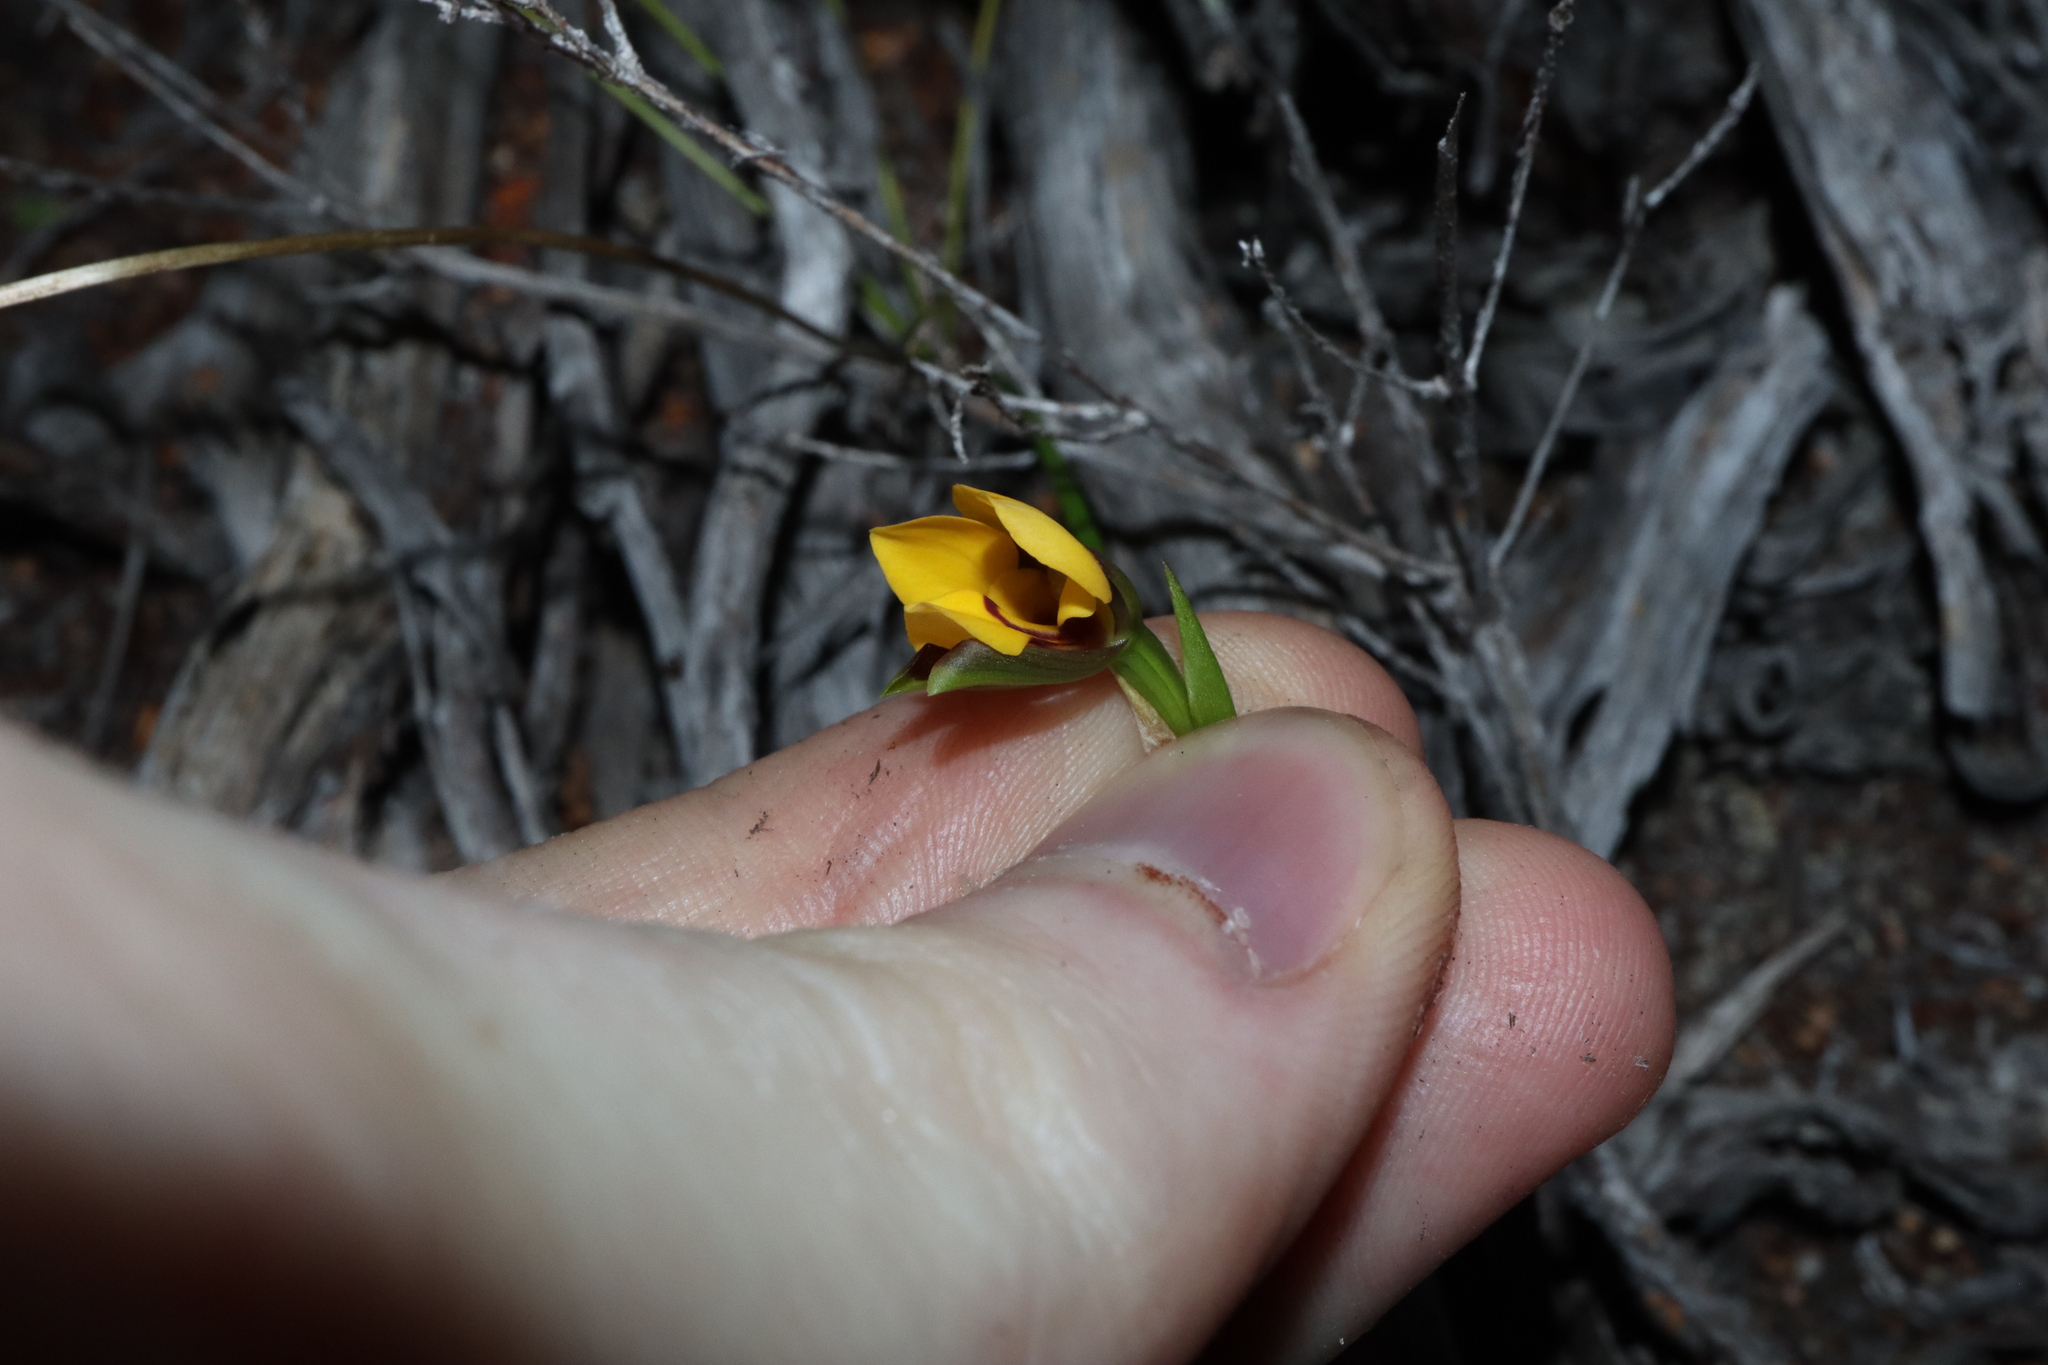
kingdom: Plantae
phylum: Tracheophyta
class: Liliopsida
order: Asparagales
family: Orchidaceae
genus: Diuris
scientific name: Diuris concinna
